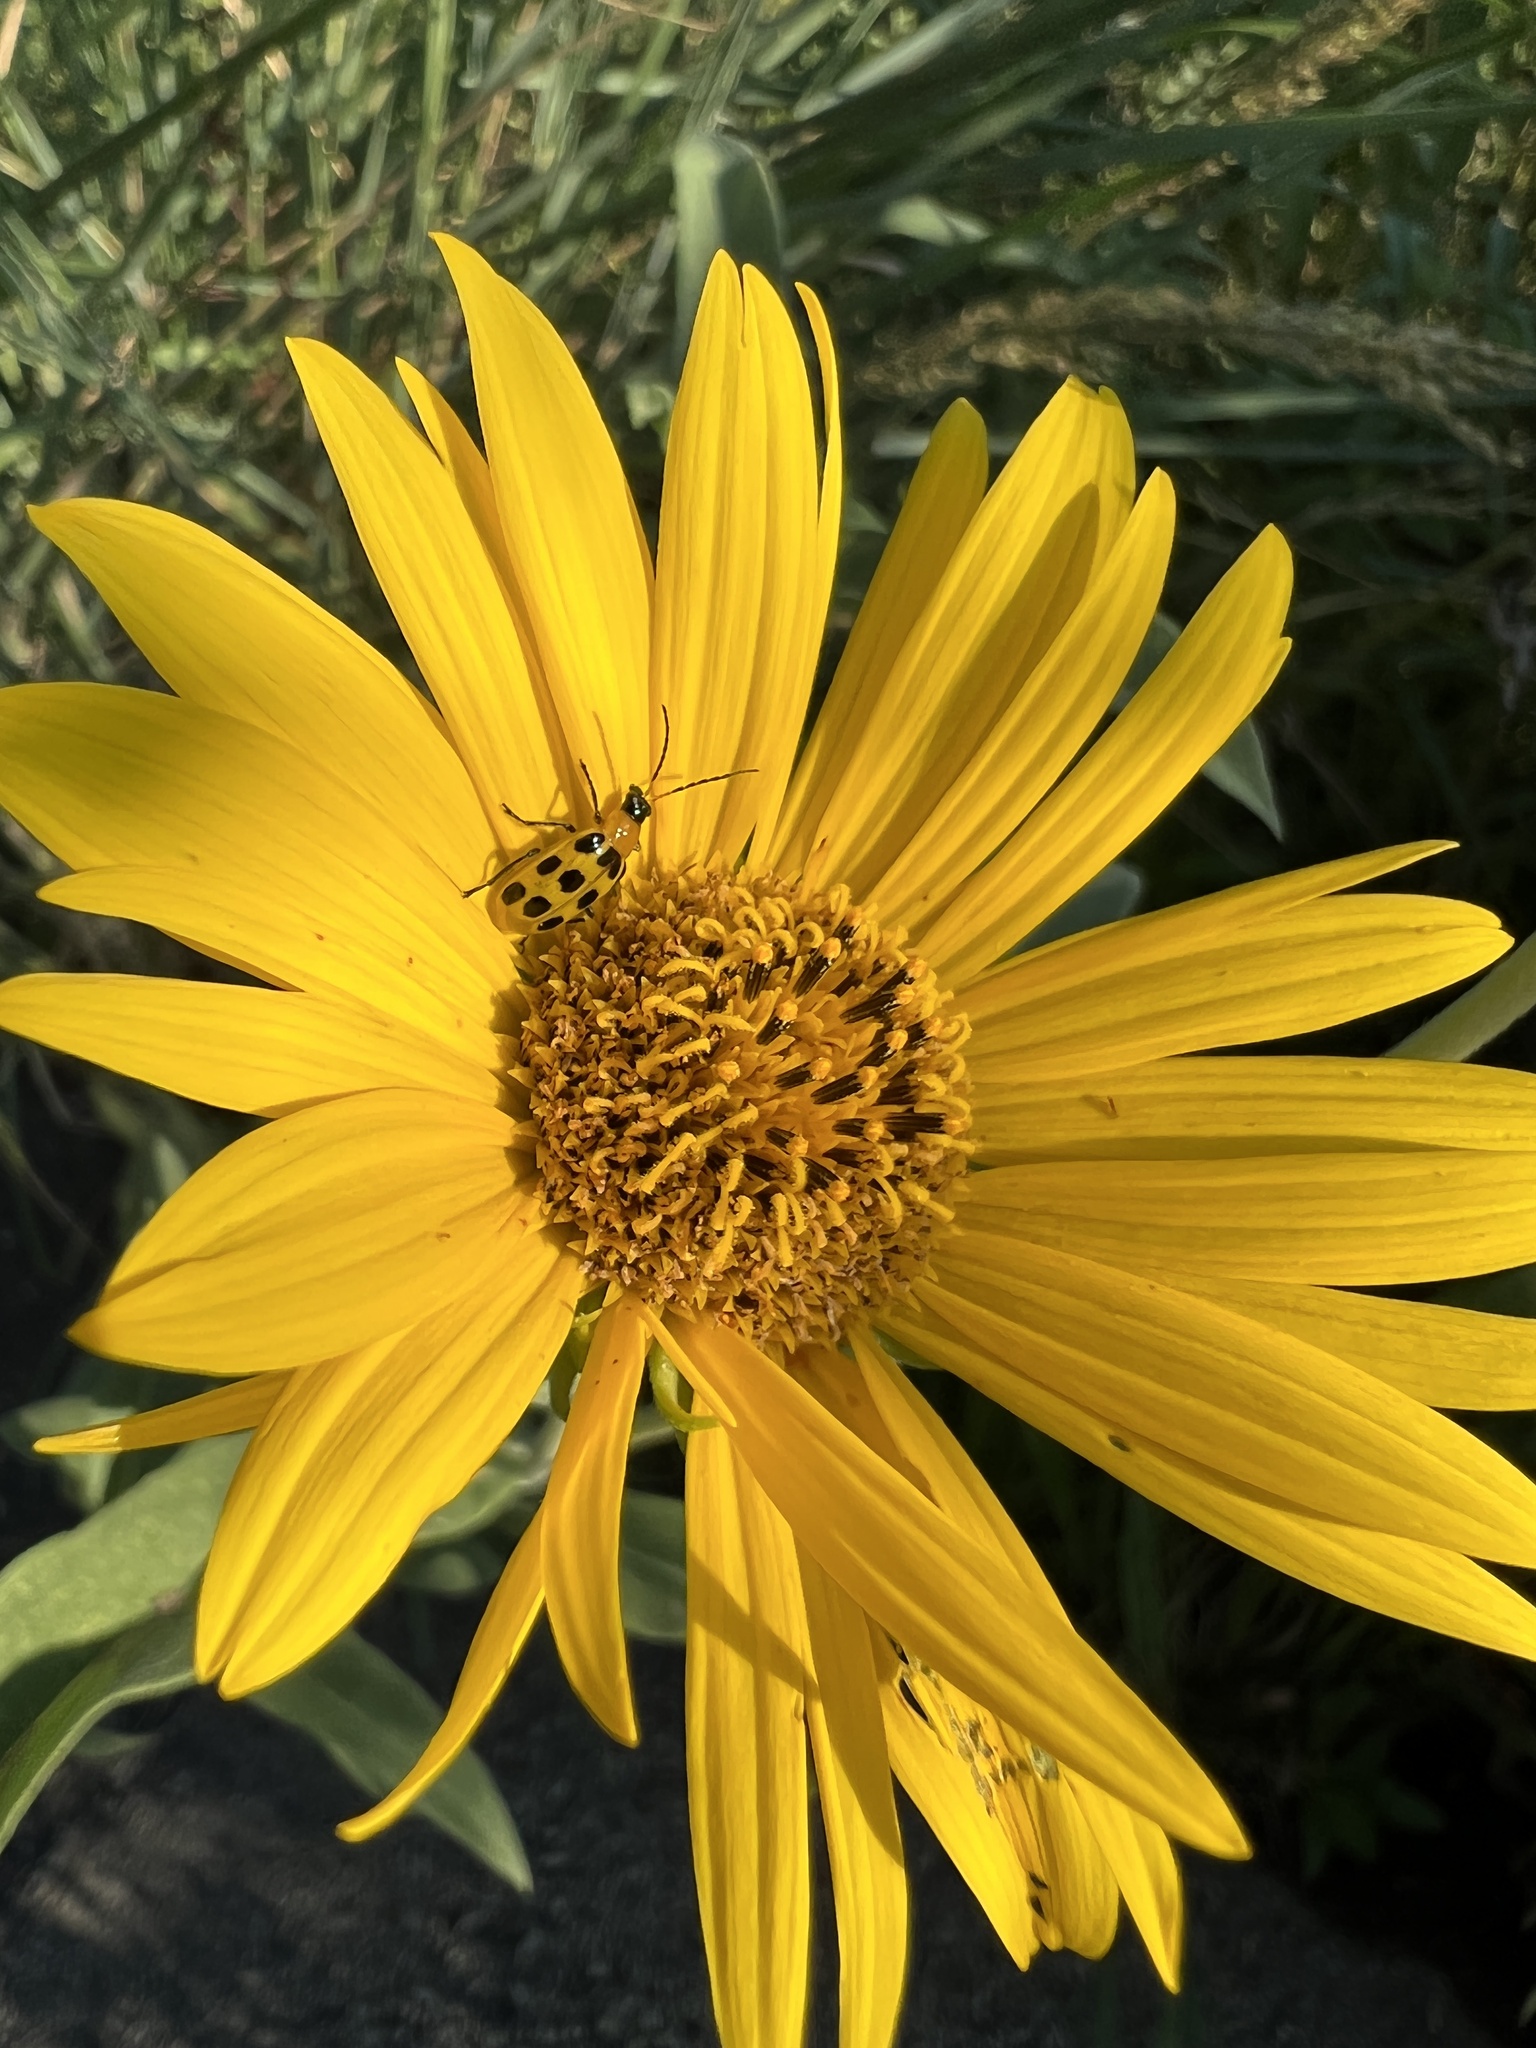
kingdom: Animalia
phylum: Arthropoda
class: Insecta
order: Coleoptera
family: Chrysomelidae
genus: Diabrotica
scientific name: Diabrotica undecimpunctata
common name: Spotted cucumber beetle
